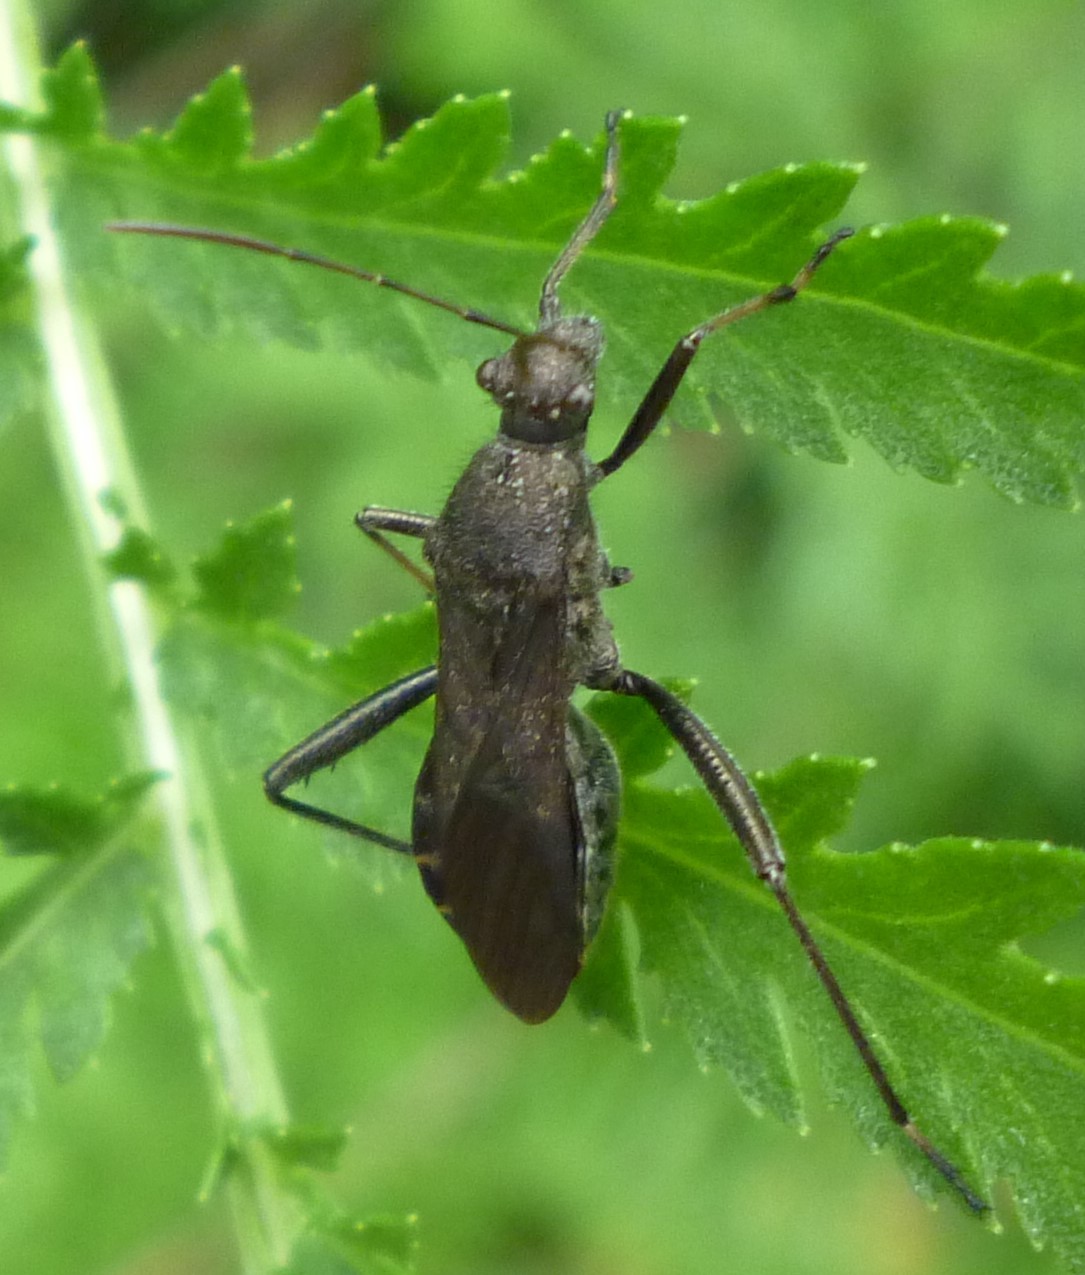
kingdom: Animalia
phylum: Arthropoda
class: Insecta
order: Hemiptera
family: Alydidae
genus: Alydus
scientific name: Alydus eurinus
